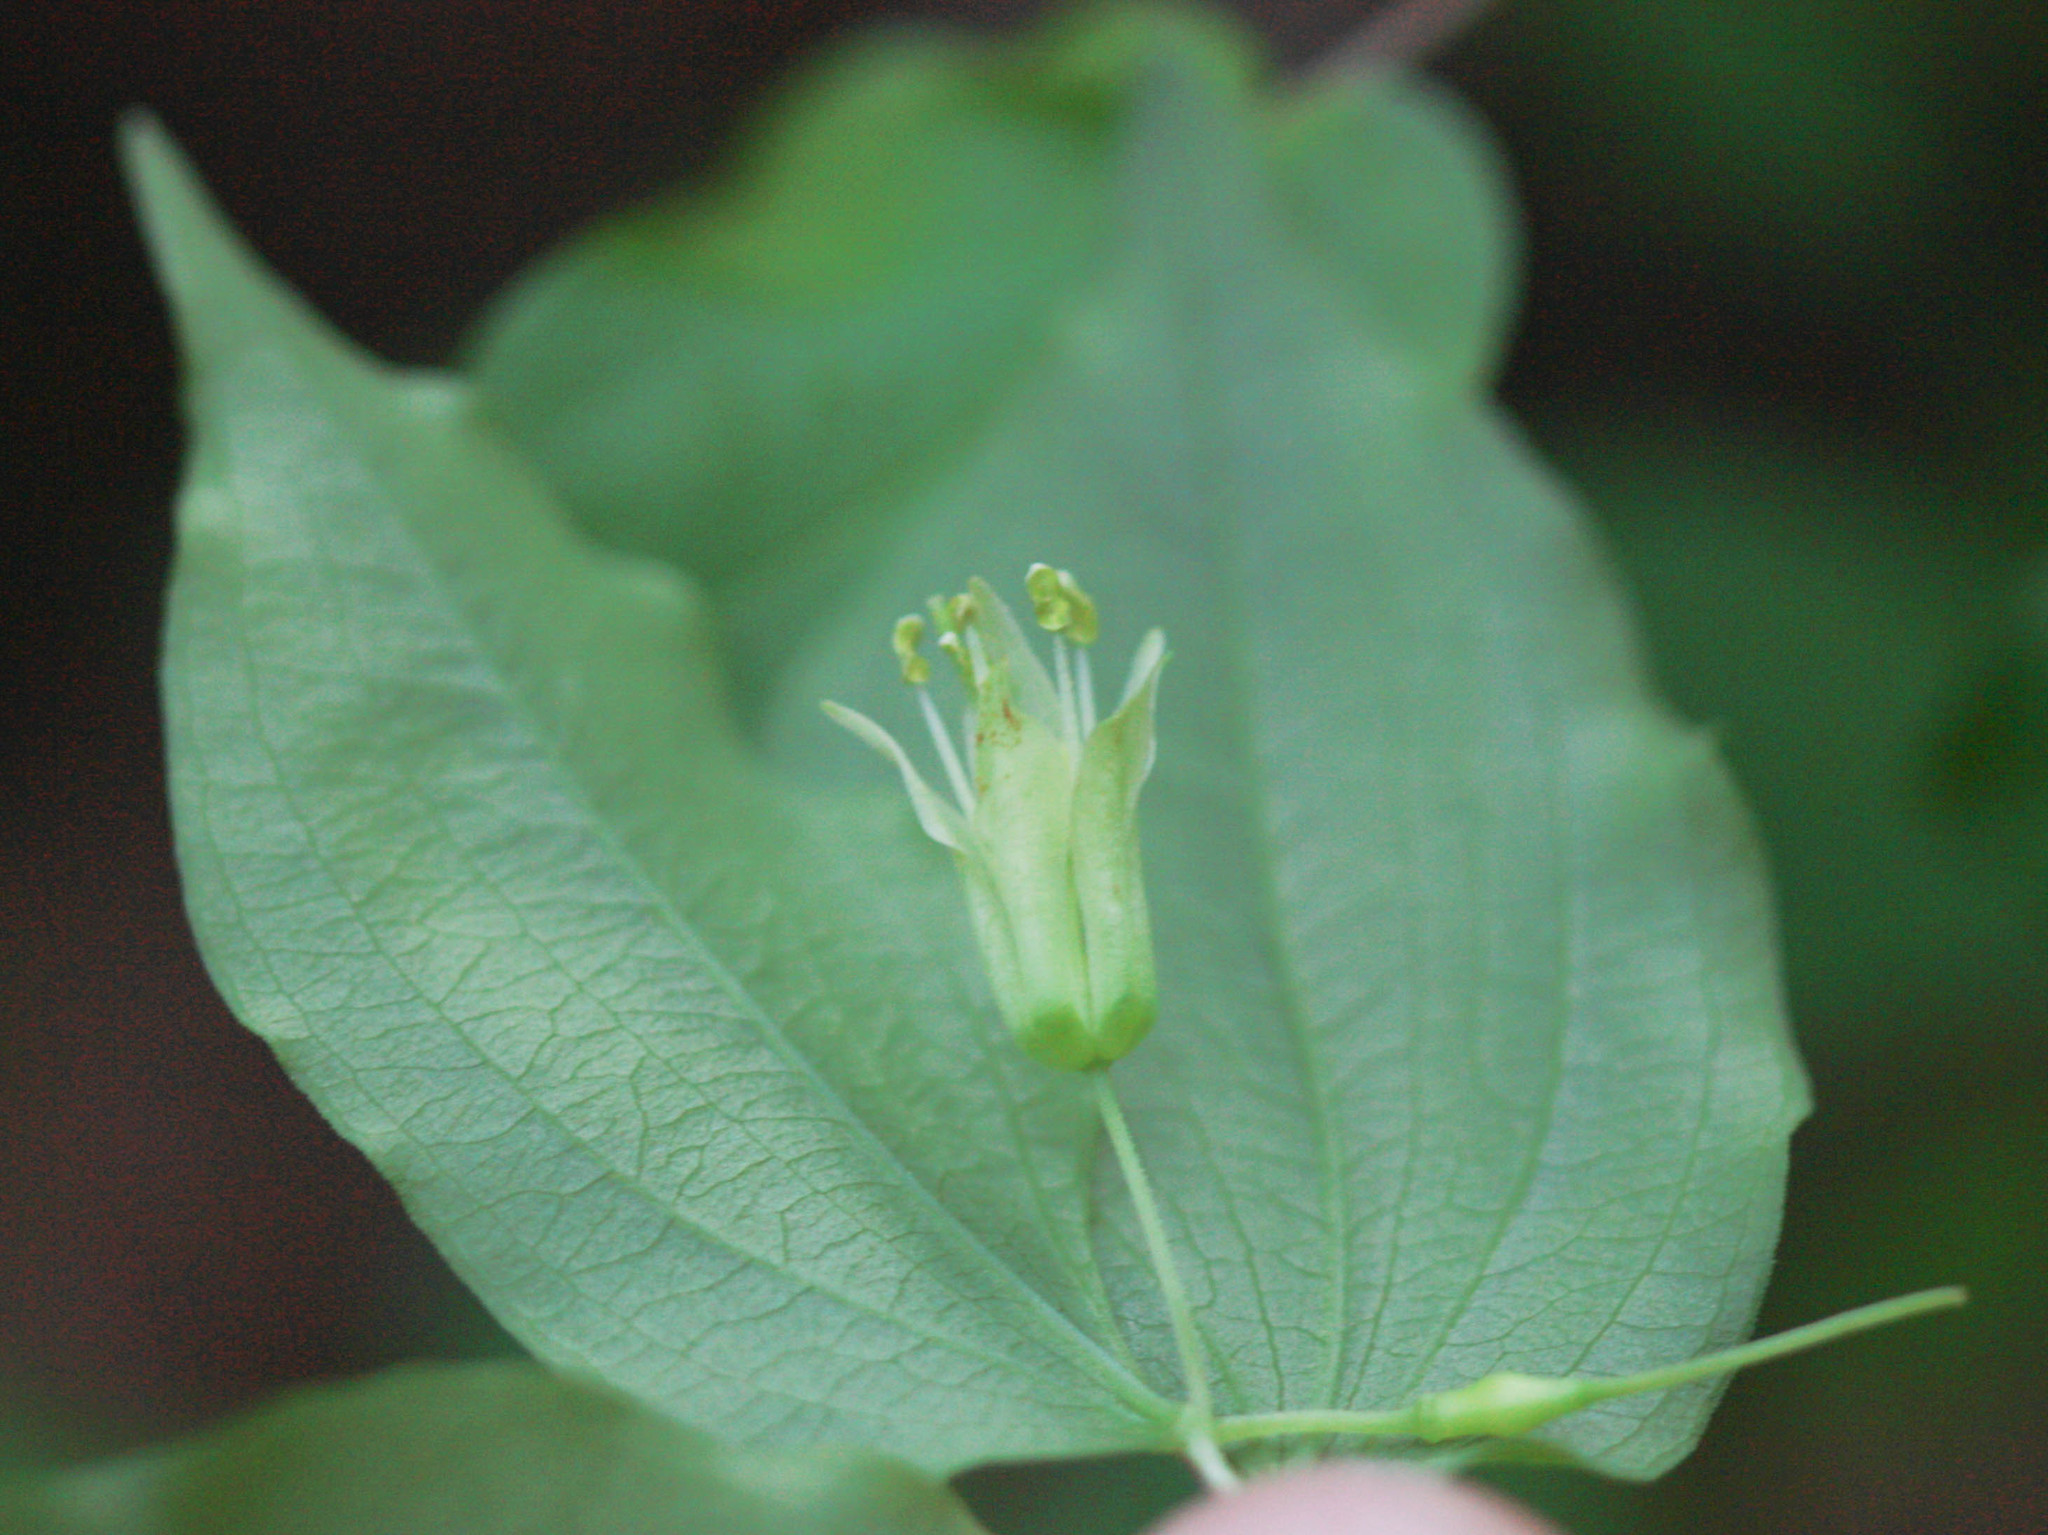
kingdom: Plantae
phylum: Tracheophyta
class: Liliopsida
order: Liliales
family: Liliaceae
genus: Prosartes
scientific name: Prosartes hookeri
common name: Fairy-bells
